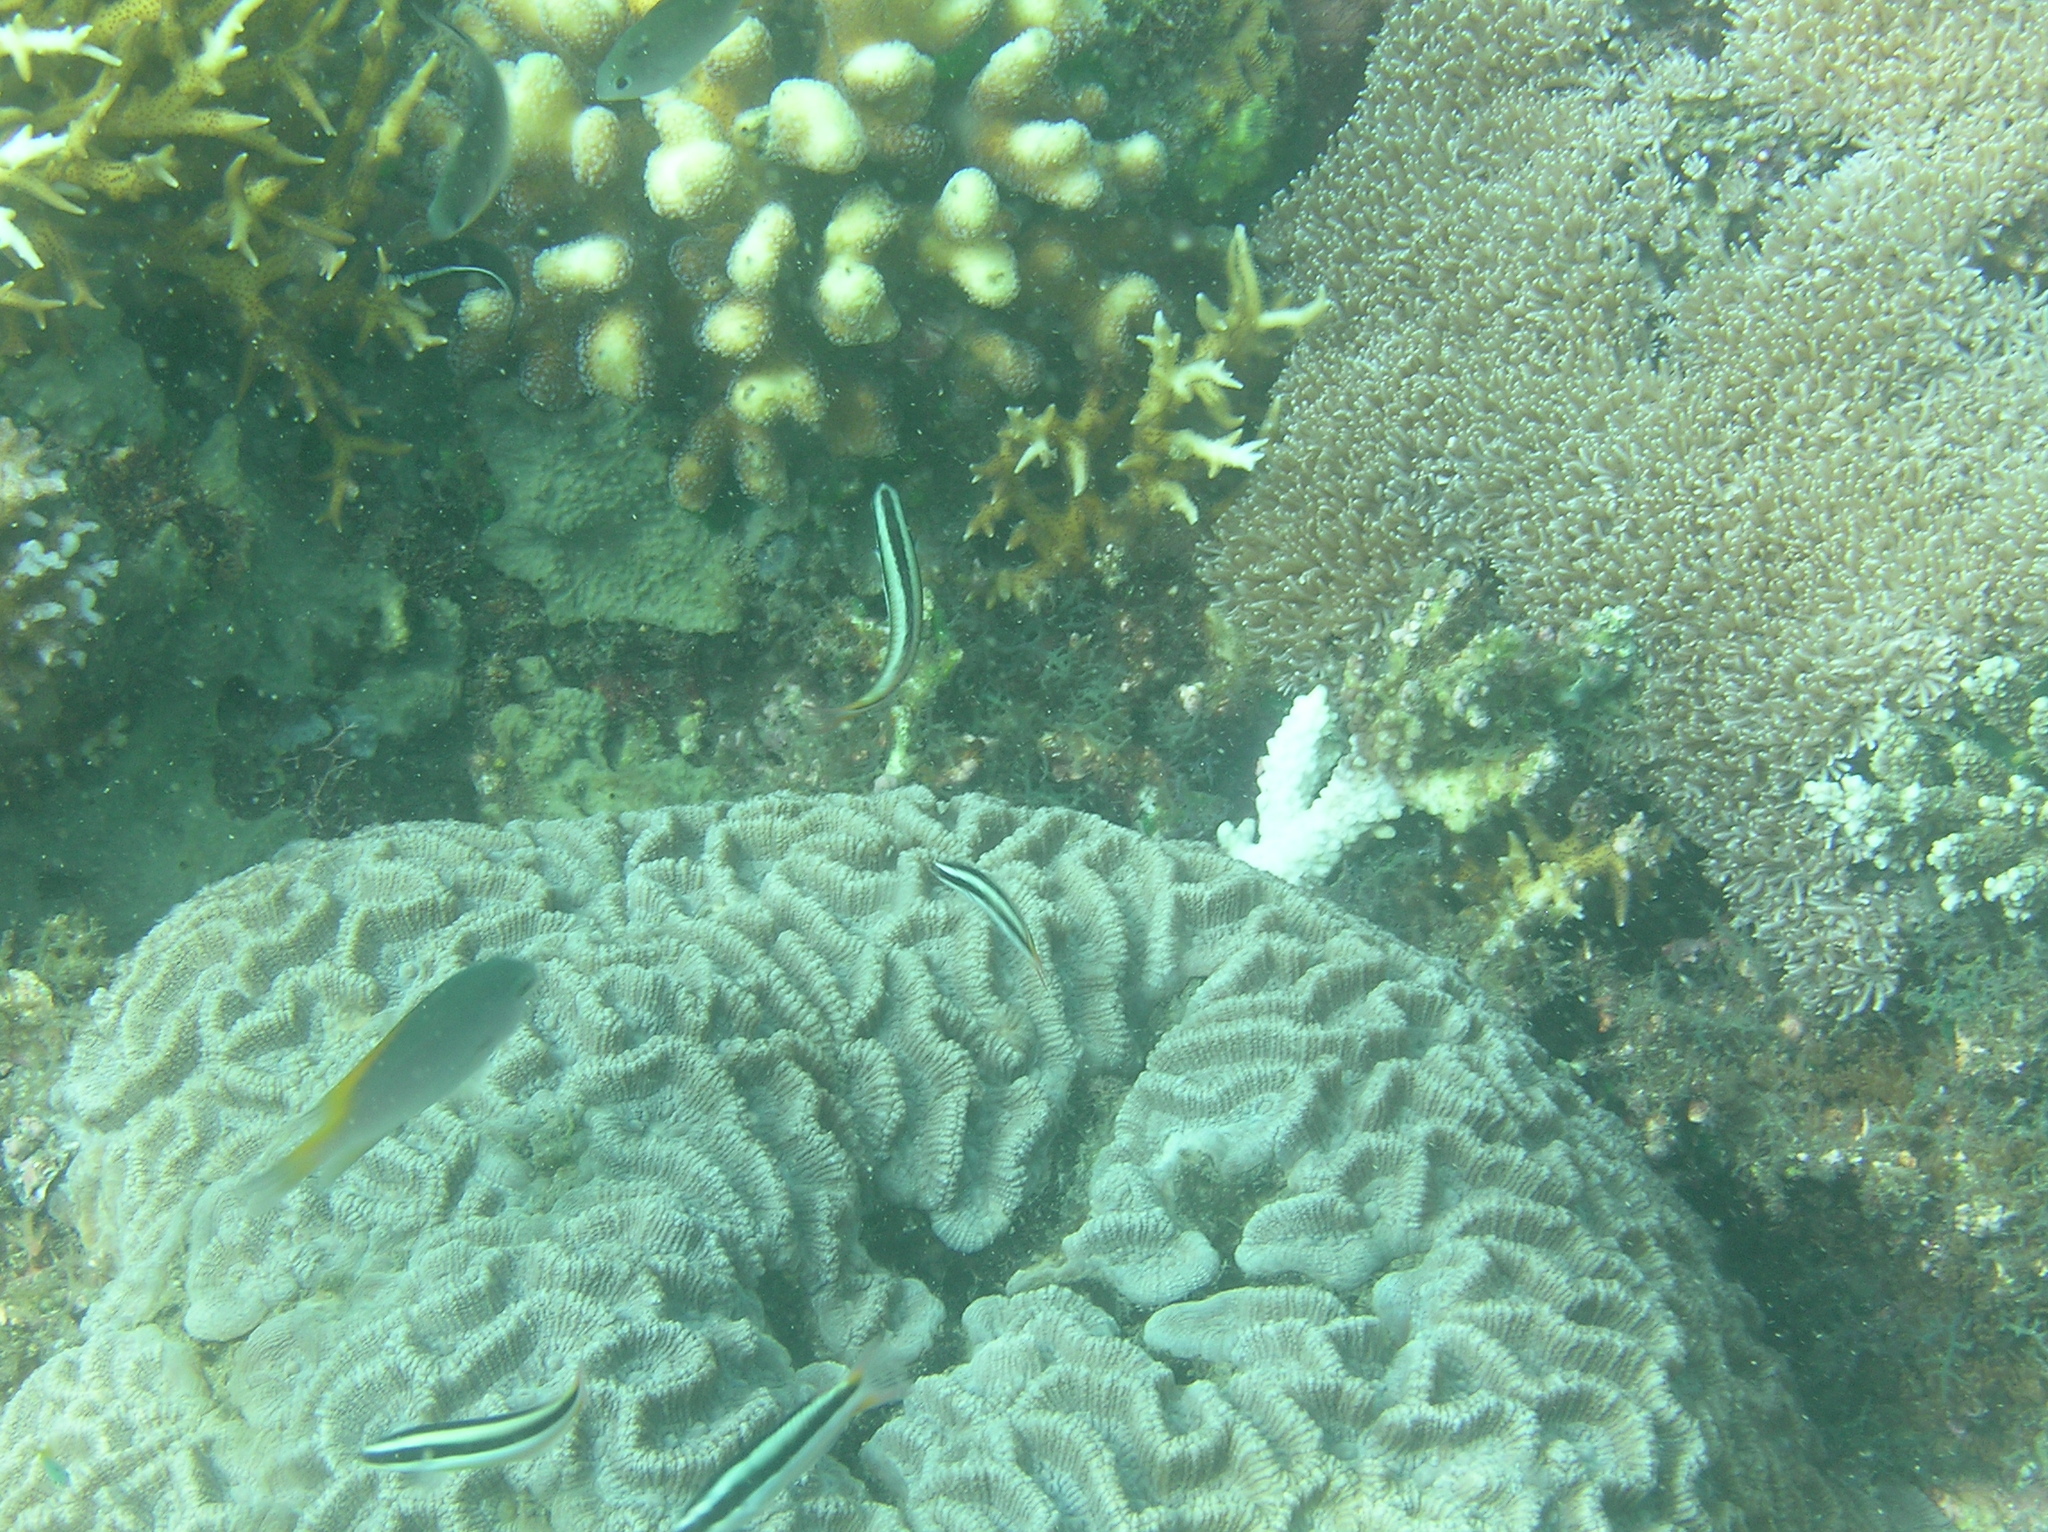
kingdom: Animalia
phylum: Chordata
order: Perciformes
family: Labridae
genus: Thalassoma
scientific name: Thalassoma amblycephalum
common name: Bluehead wrasse
